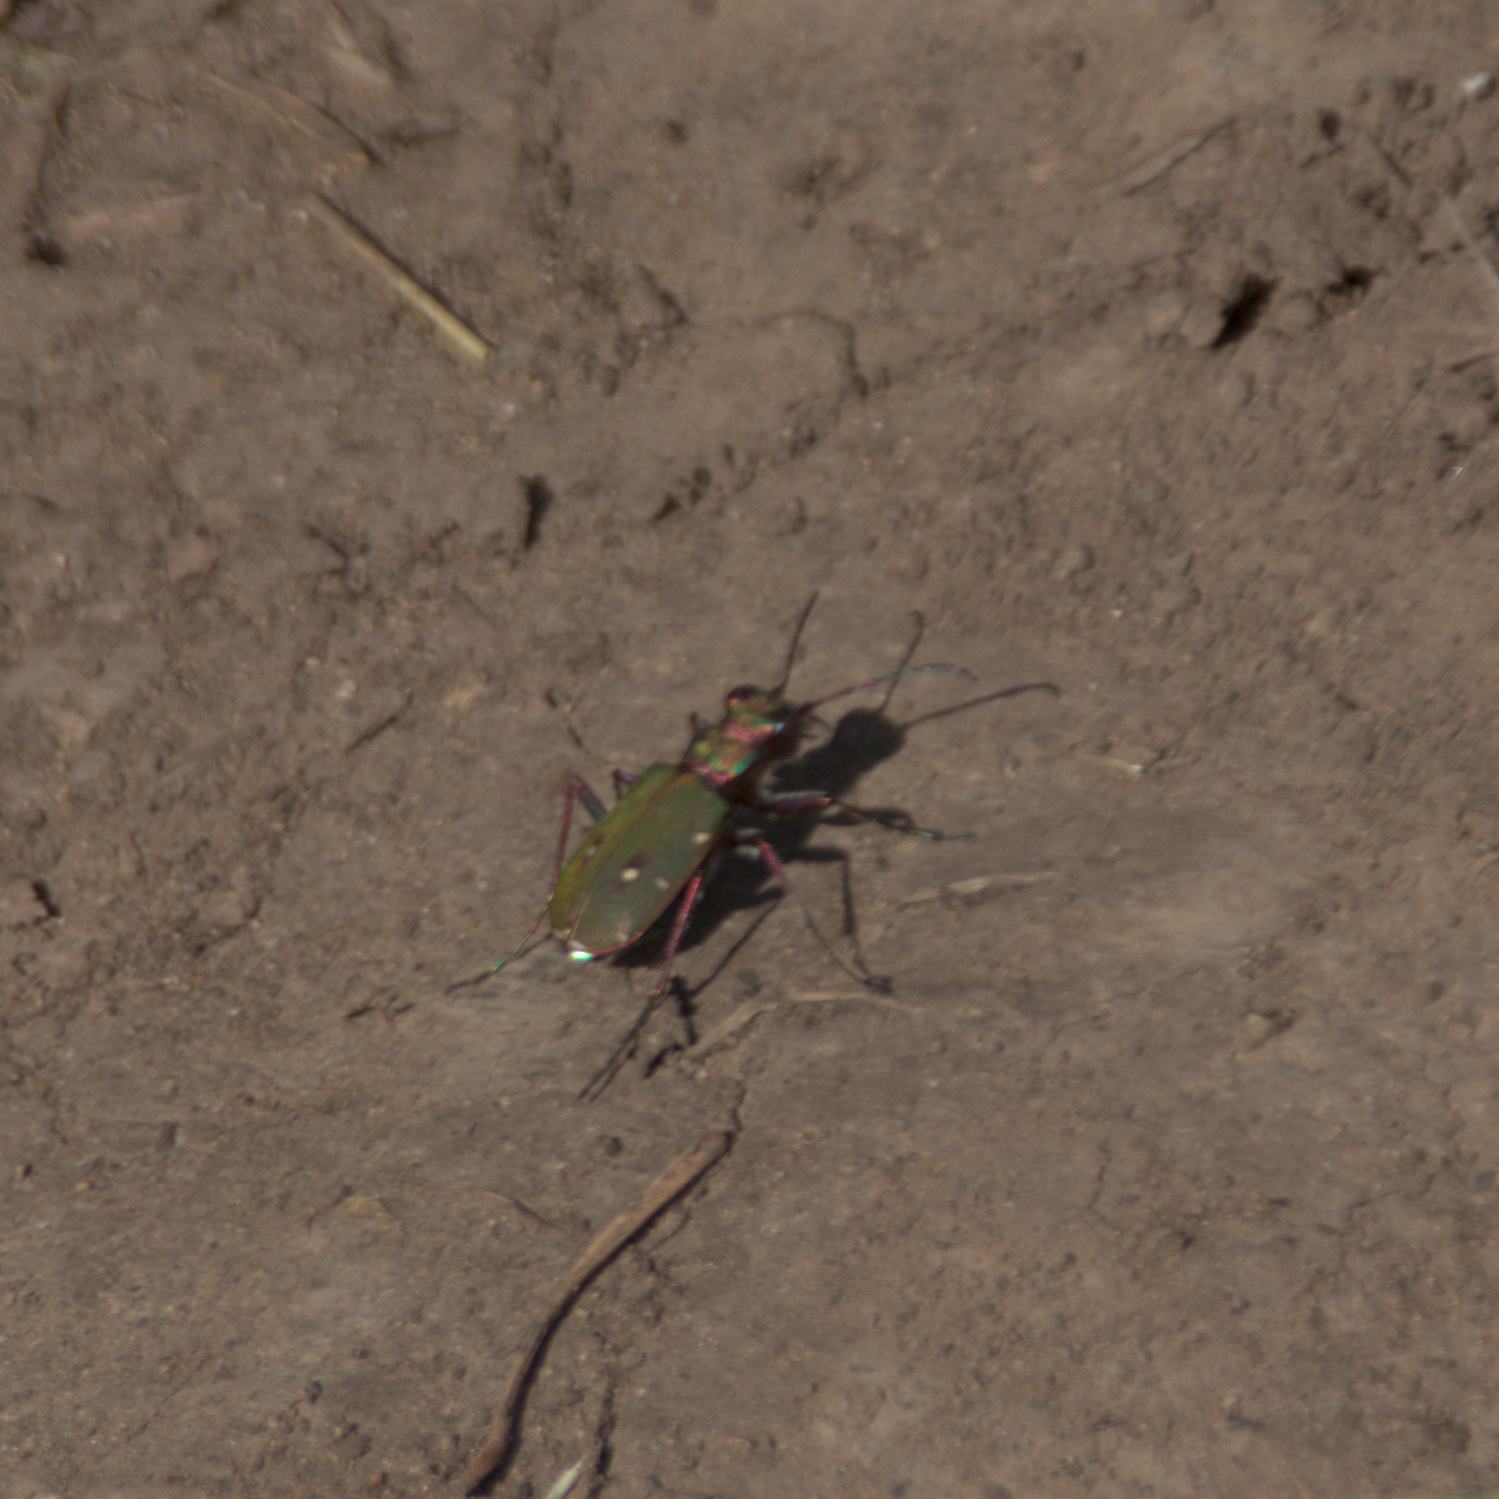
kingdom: Animalia
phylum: Arthropoda
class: Insecta
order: Coleoptera
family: Carabidae
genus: Cicindela
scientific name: Cicindela campestris
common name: Common tiger beetle
